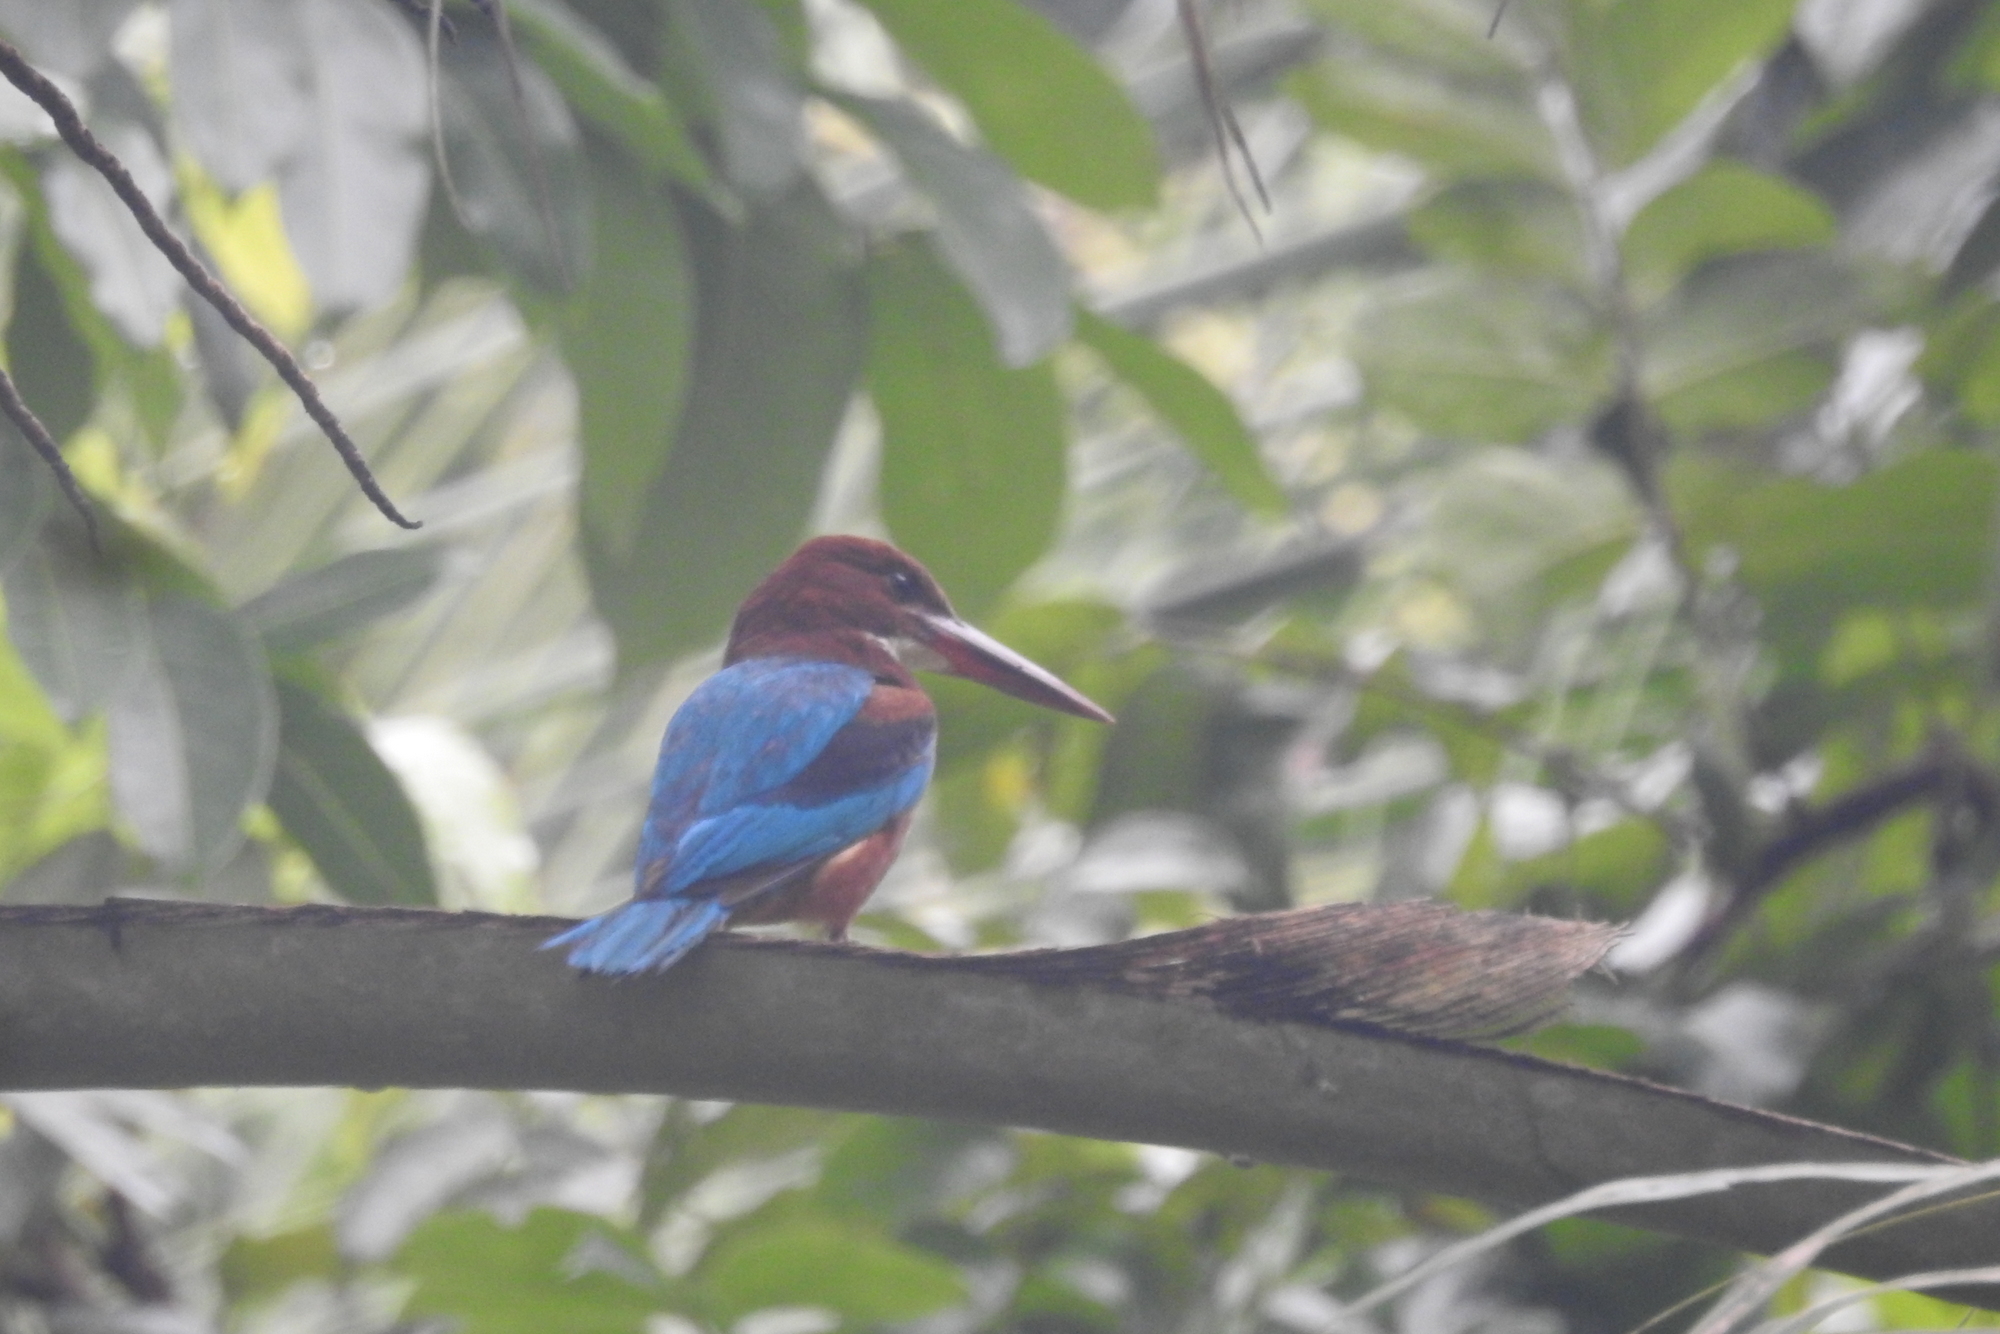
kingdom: Animalia
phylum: Chordata
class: Aves
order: Coraciiformes
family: Alcedinidae
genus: Halcyon
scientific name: Halcyon smyrnensis
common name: White-throated kingfisher
